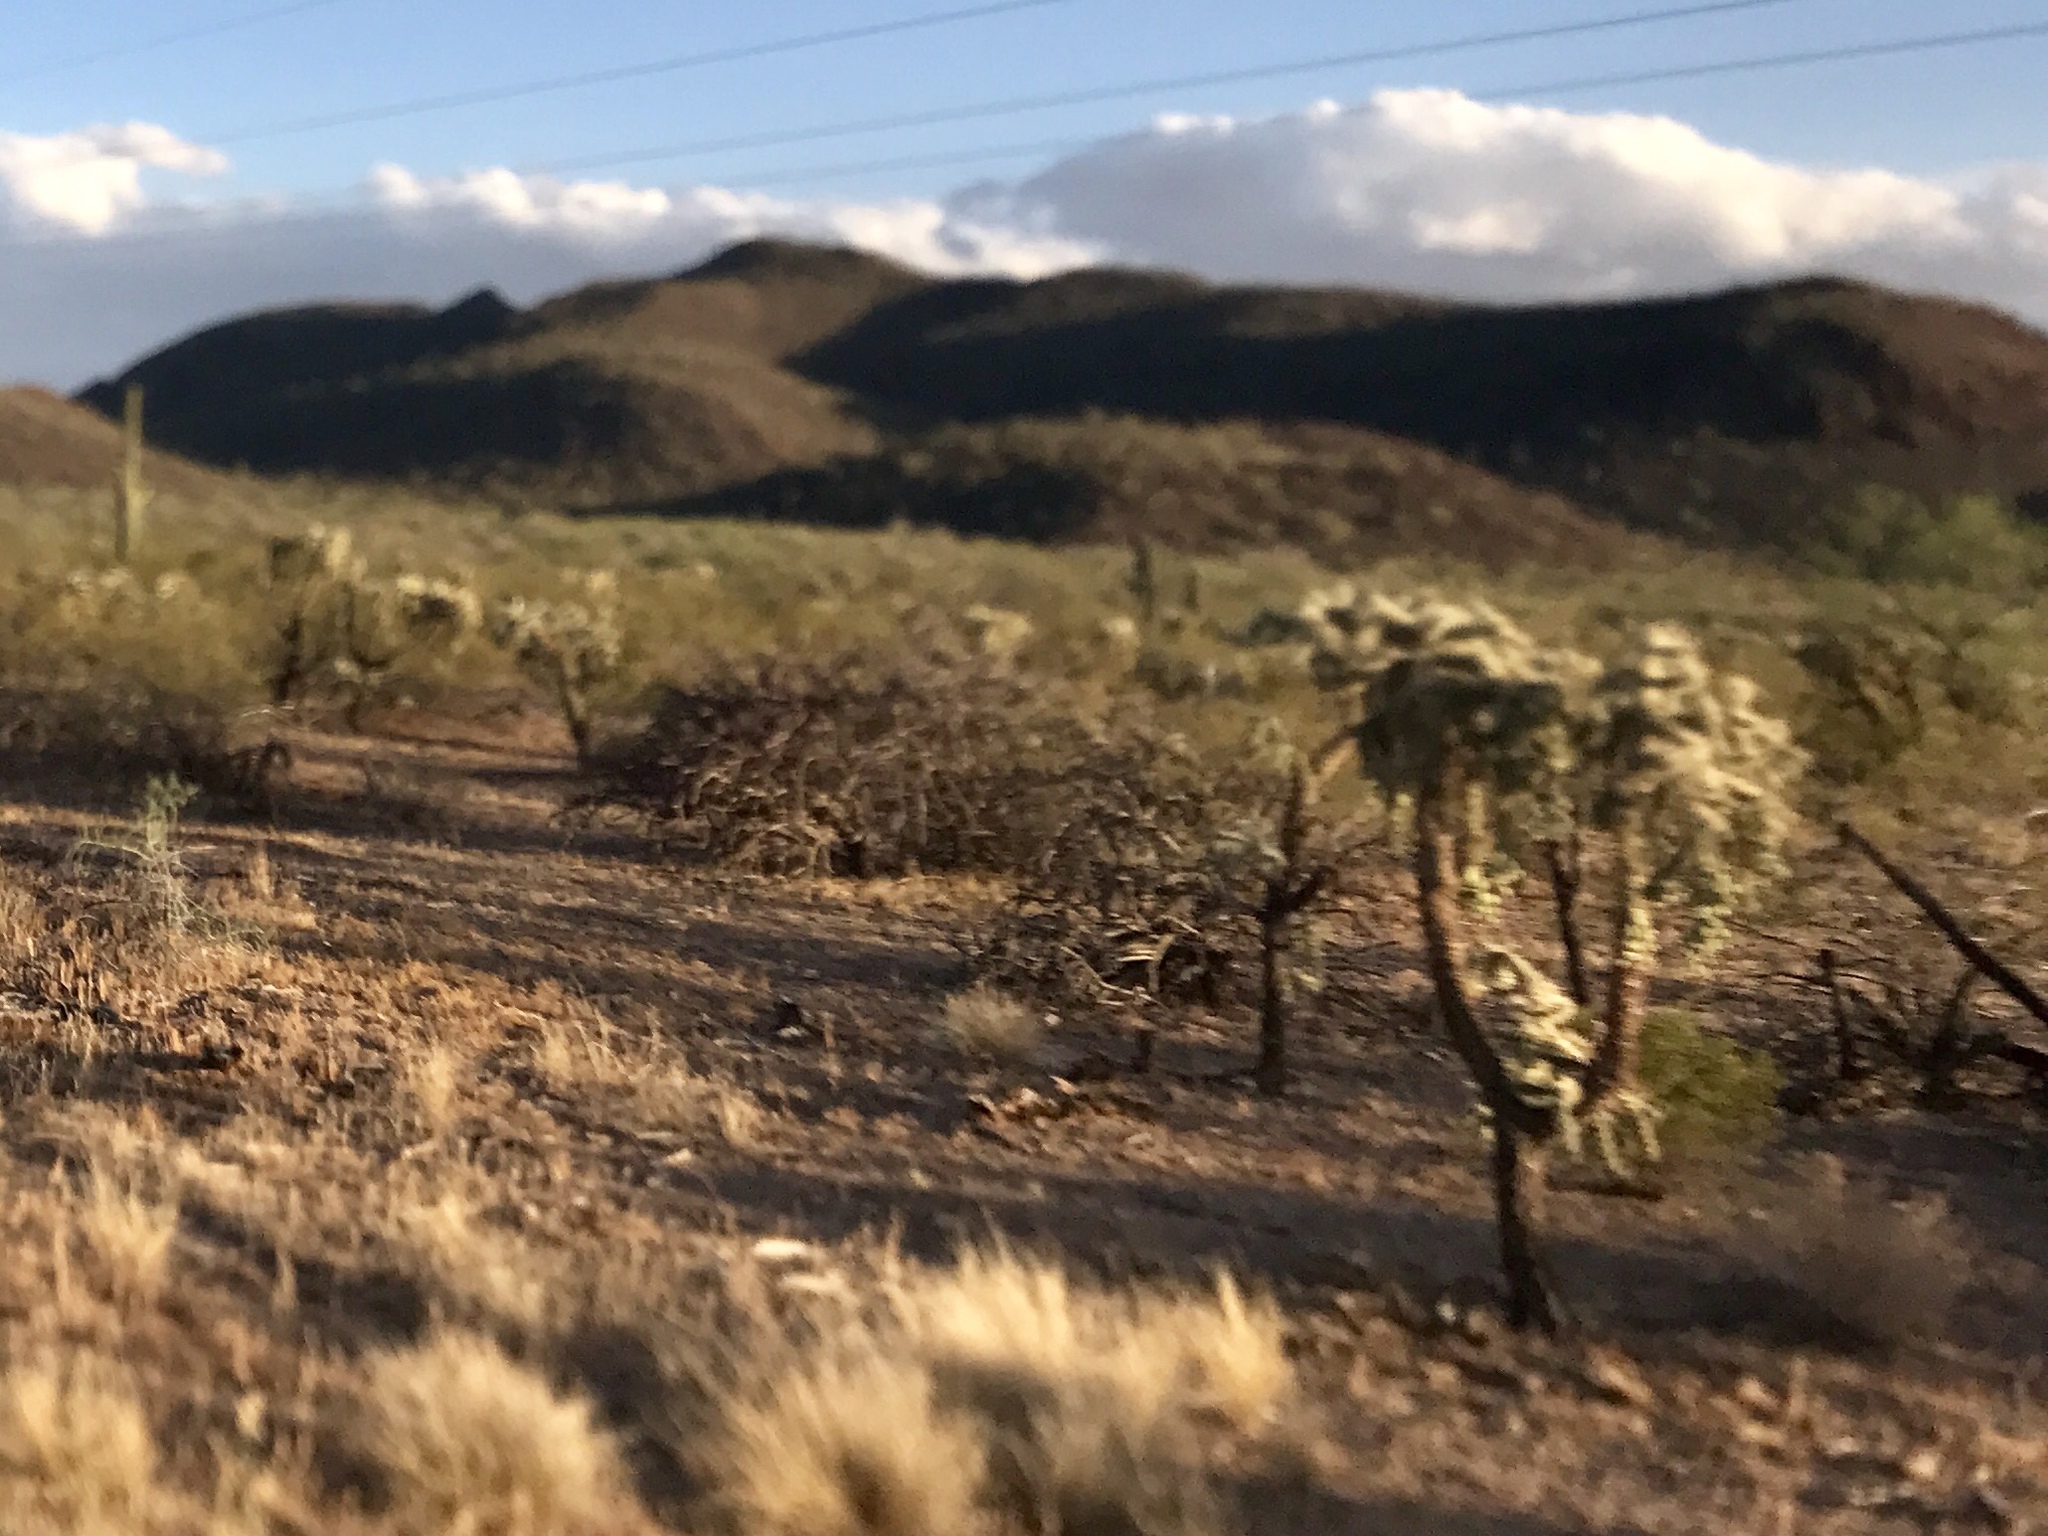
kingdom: Plantae
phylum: Tracheophyta
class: Magnoliopsida
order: Caryophyllales
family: Cactaceae
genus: Cylindropuntia
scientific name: Cylindropuntia fulgida
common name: Jumping cholla
